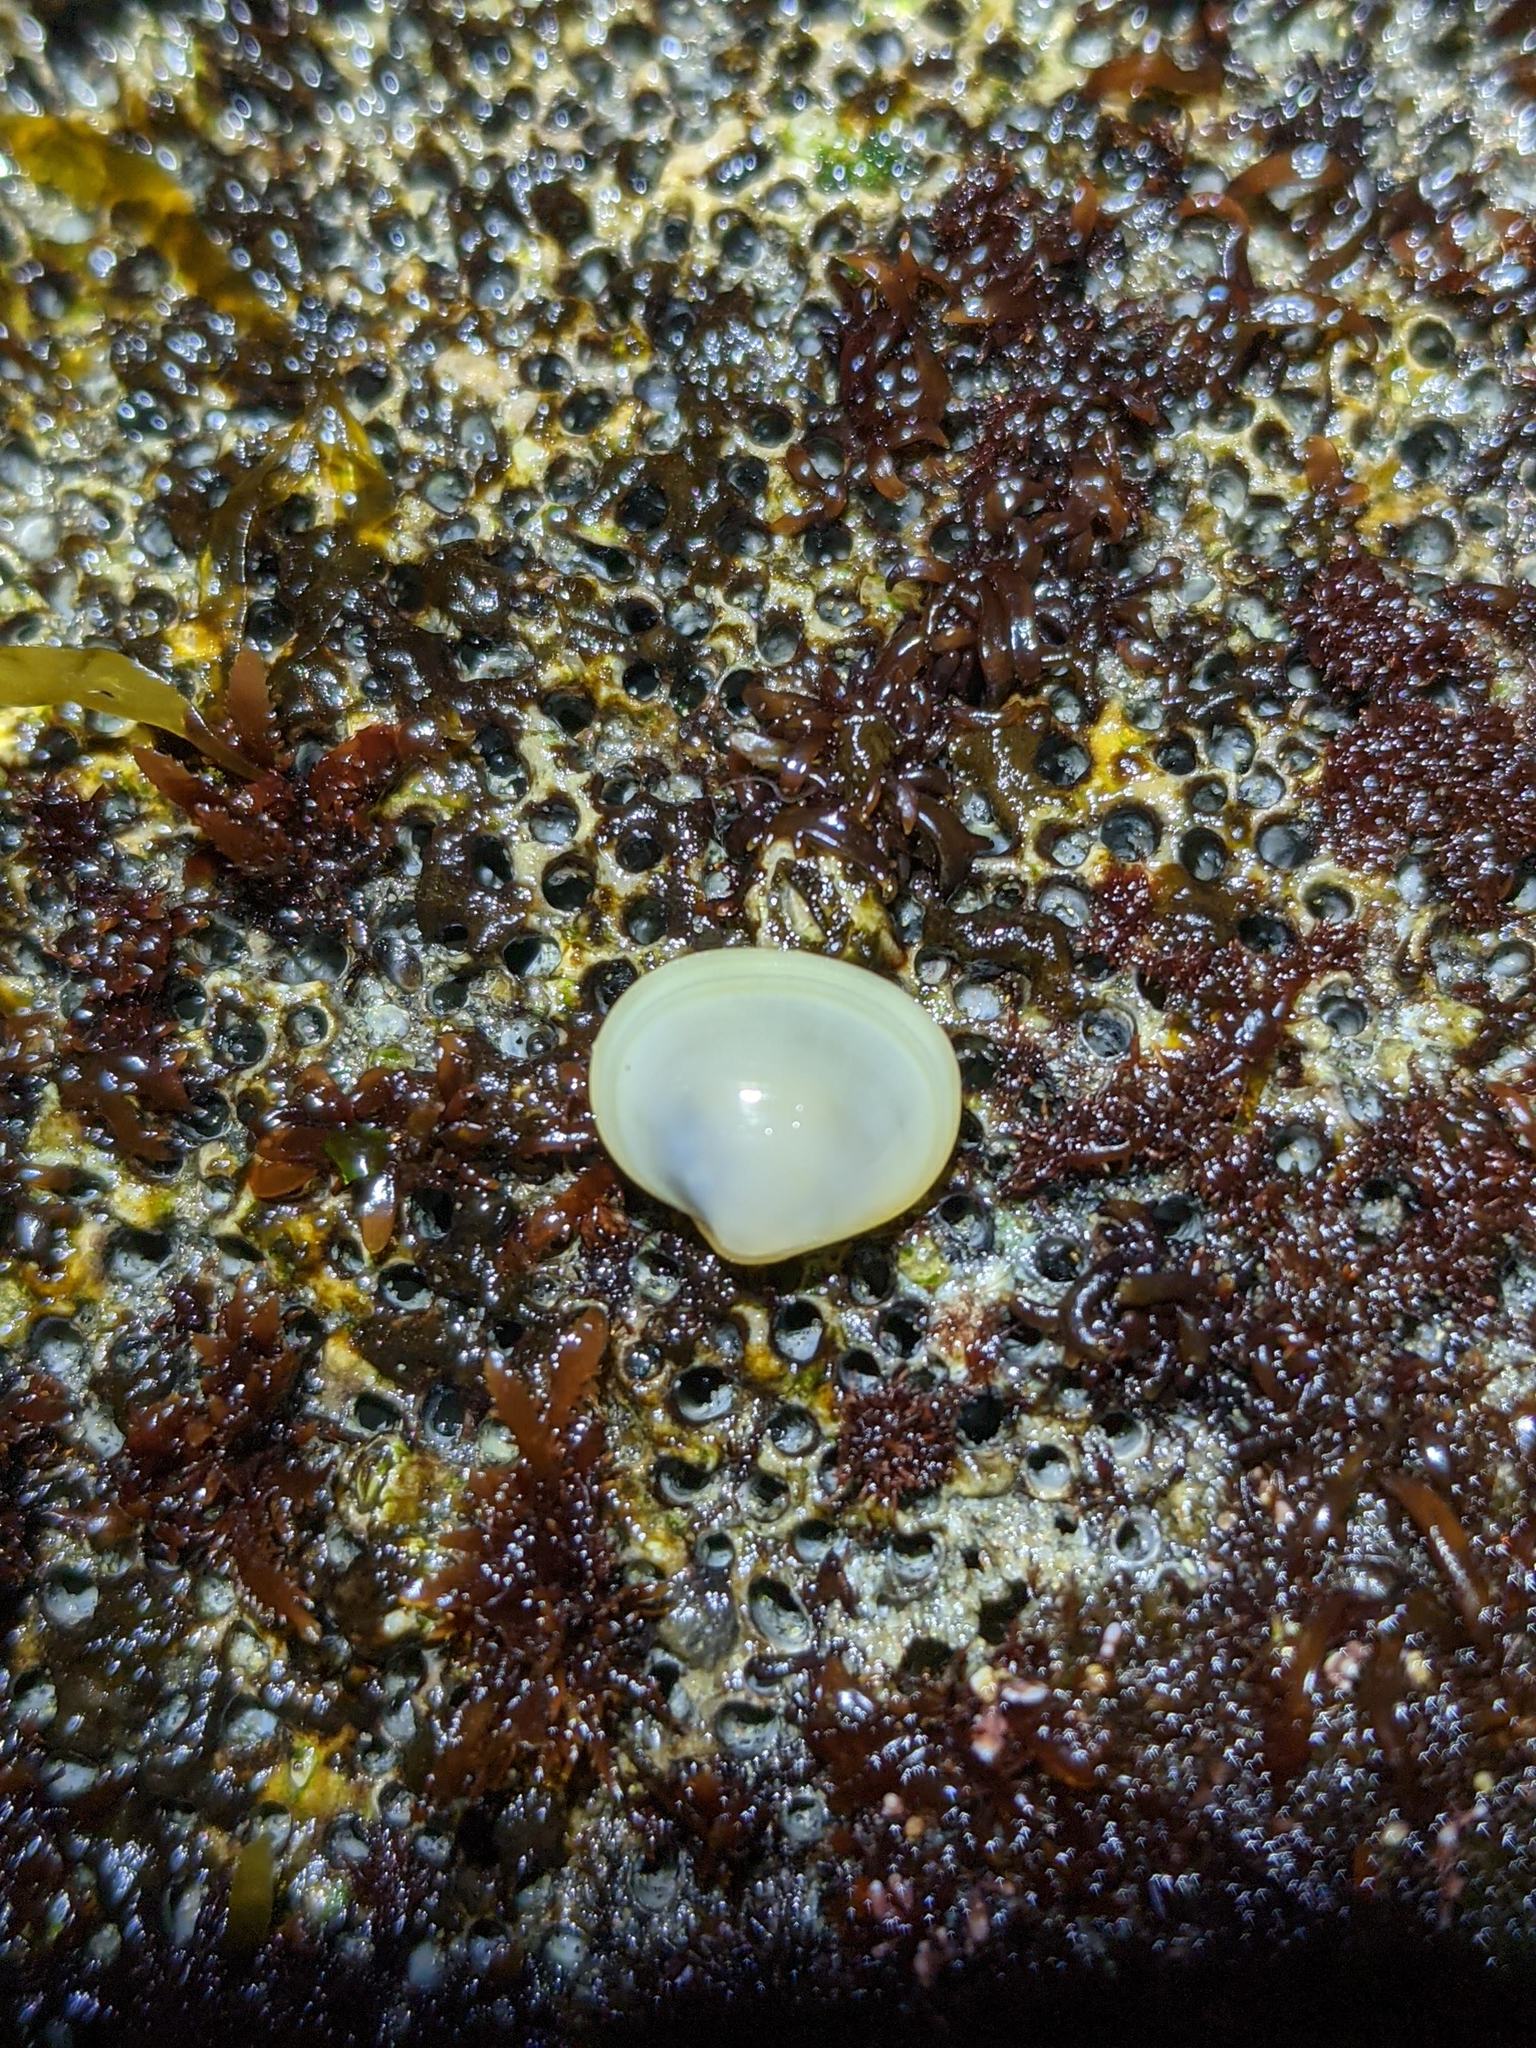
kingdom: Animalia
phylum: Mollusca
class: Bivalvia
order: Galeommatida
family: Lasaeidae
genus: Kellia
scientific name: Kellia laperousii
